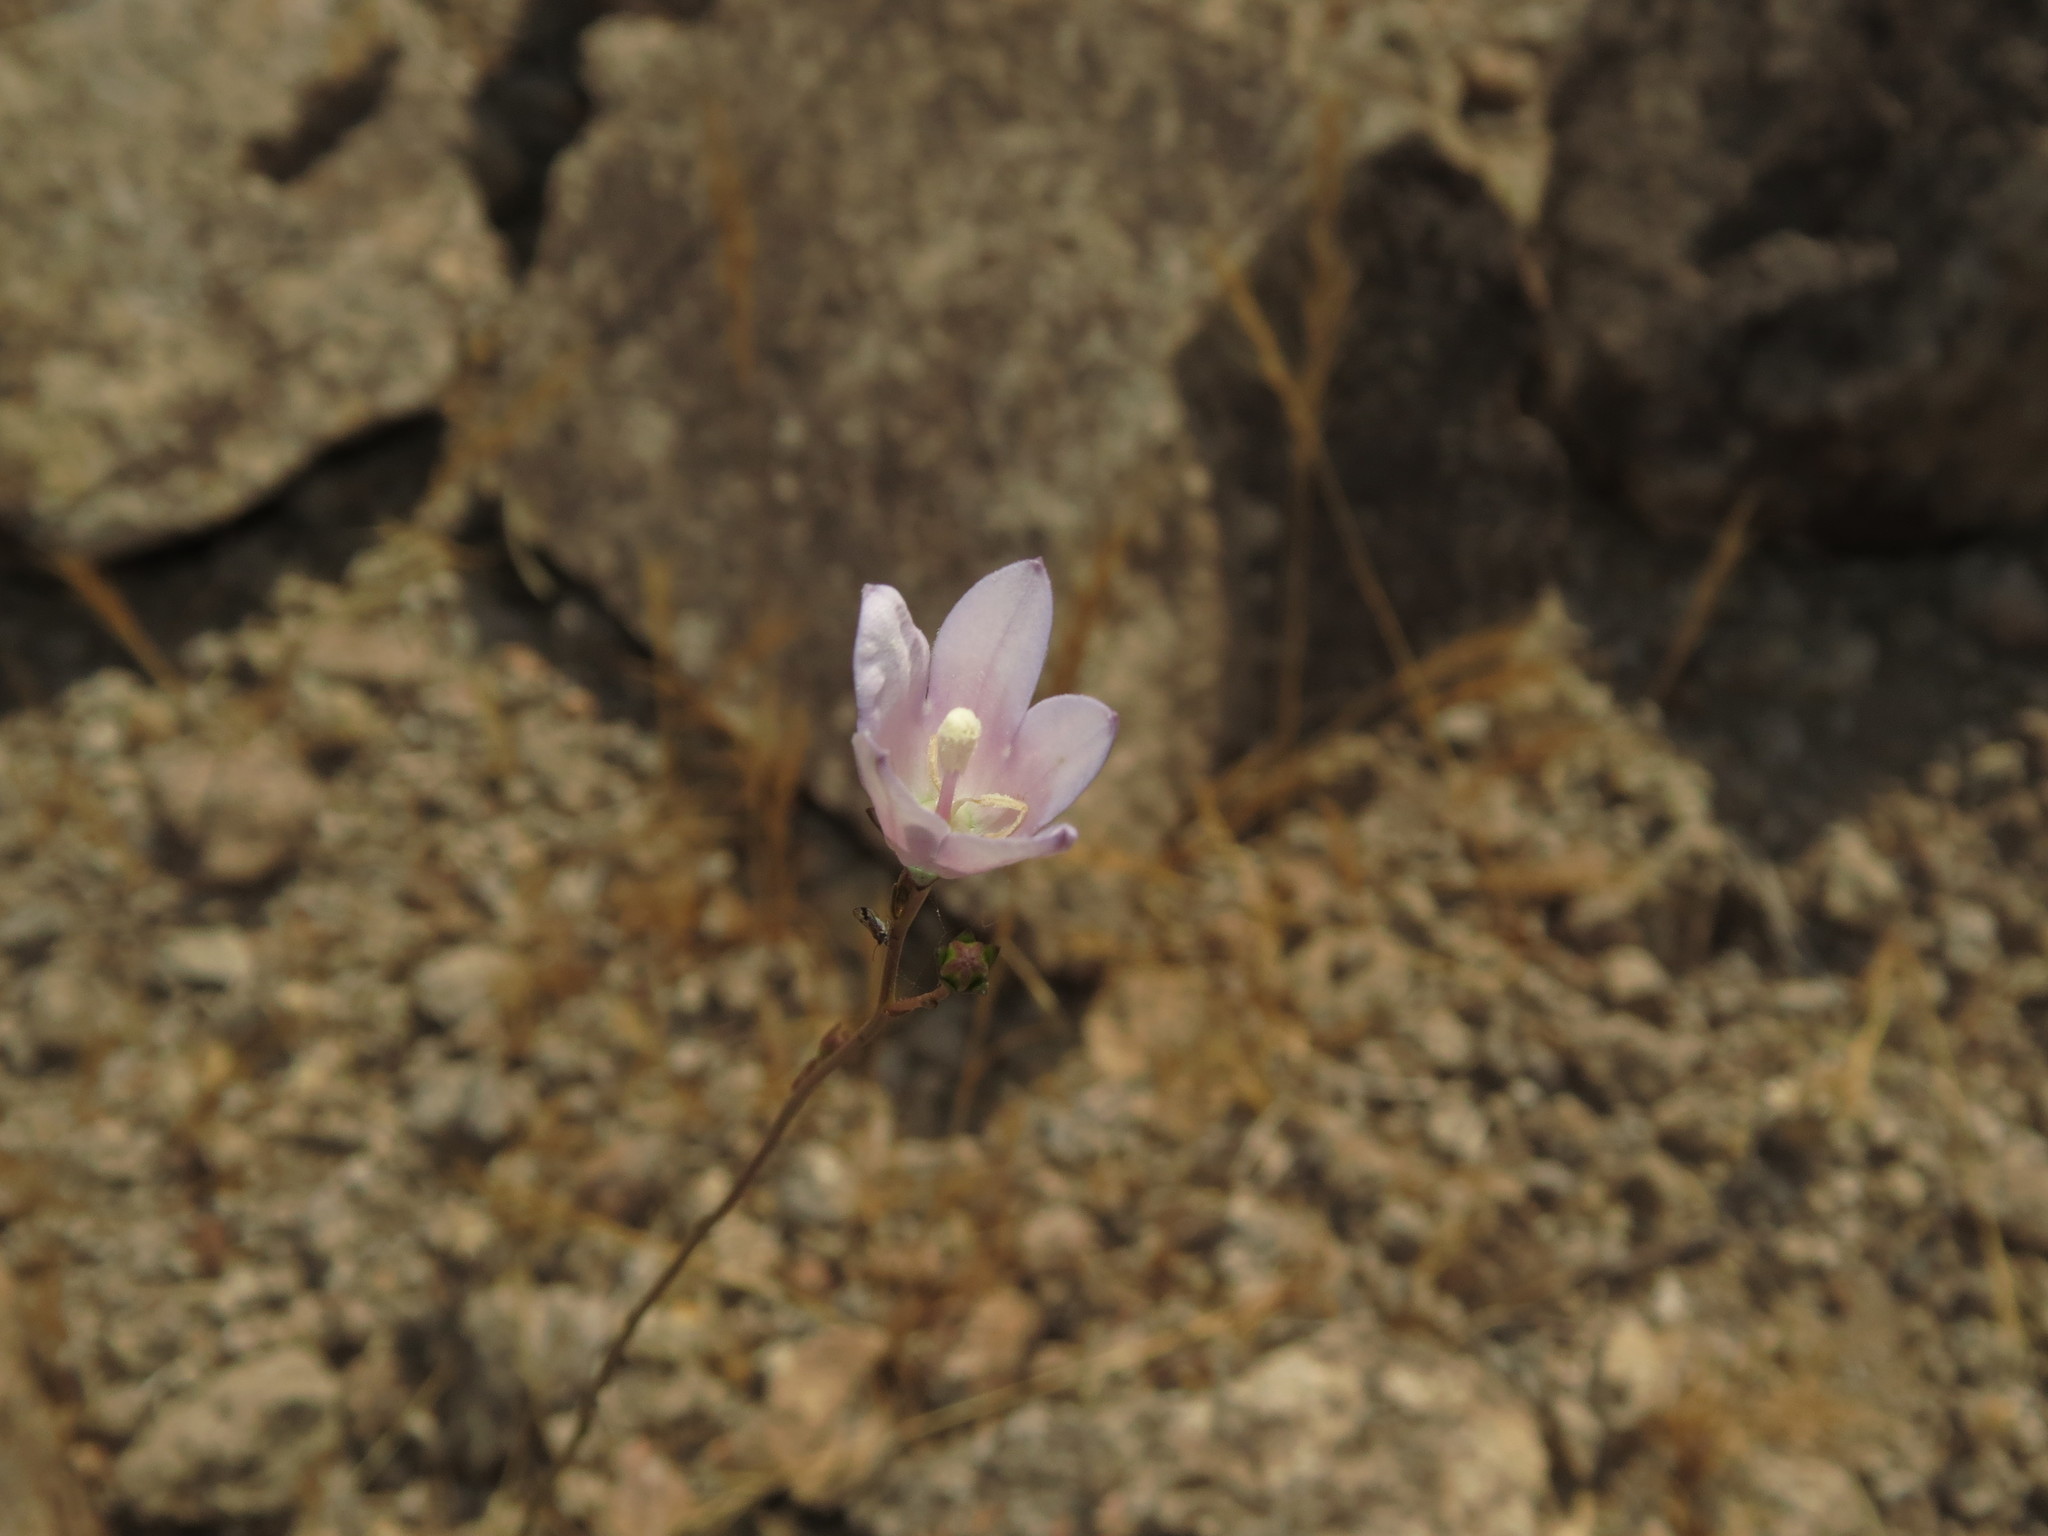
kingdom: Plantae
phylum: Tracheophyta
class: Magnoliopsida
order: Asterales
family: Campanulaceae
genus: Wahlenbergia
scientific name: Wahlenbergia linarioides
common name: Tuffybells
